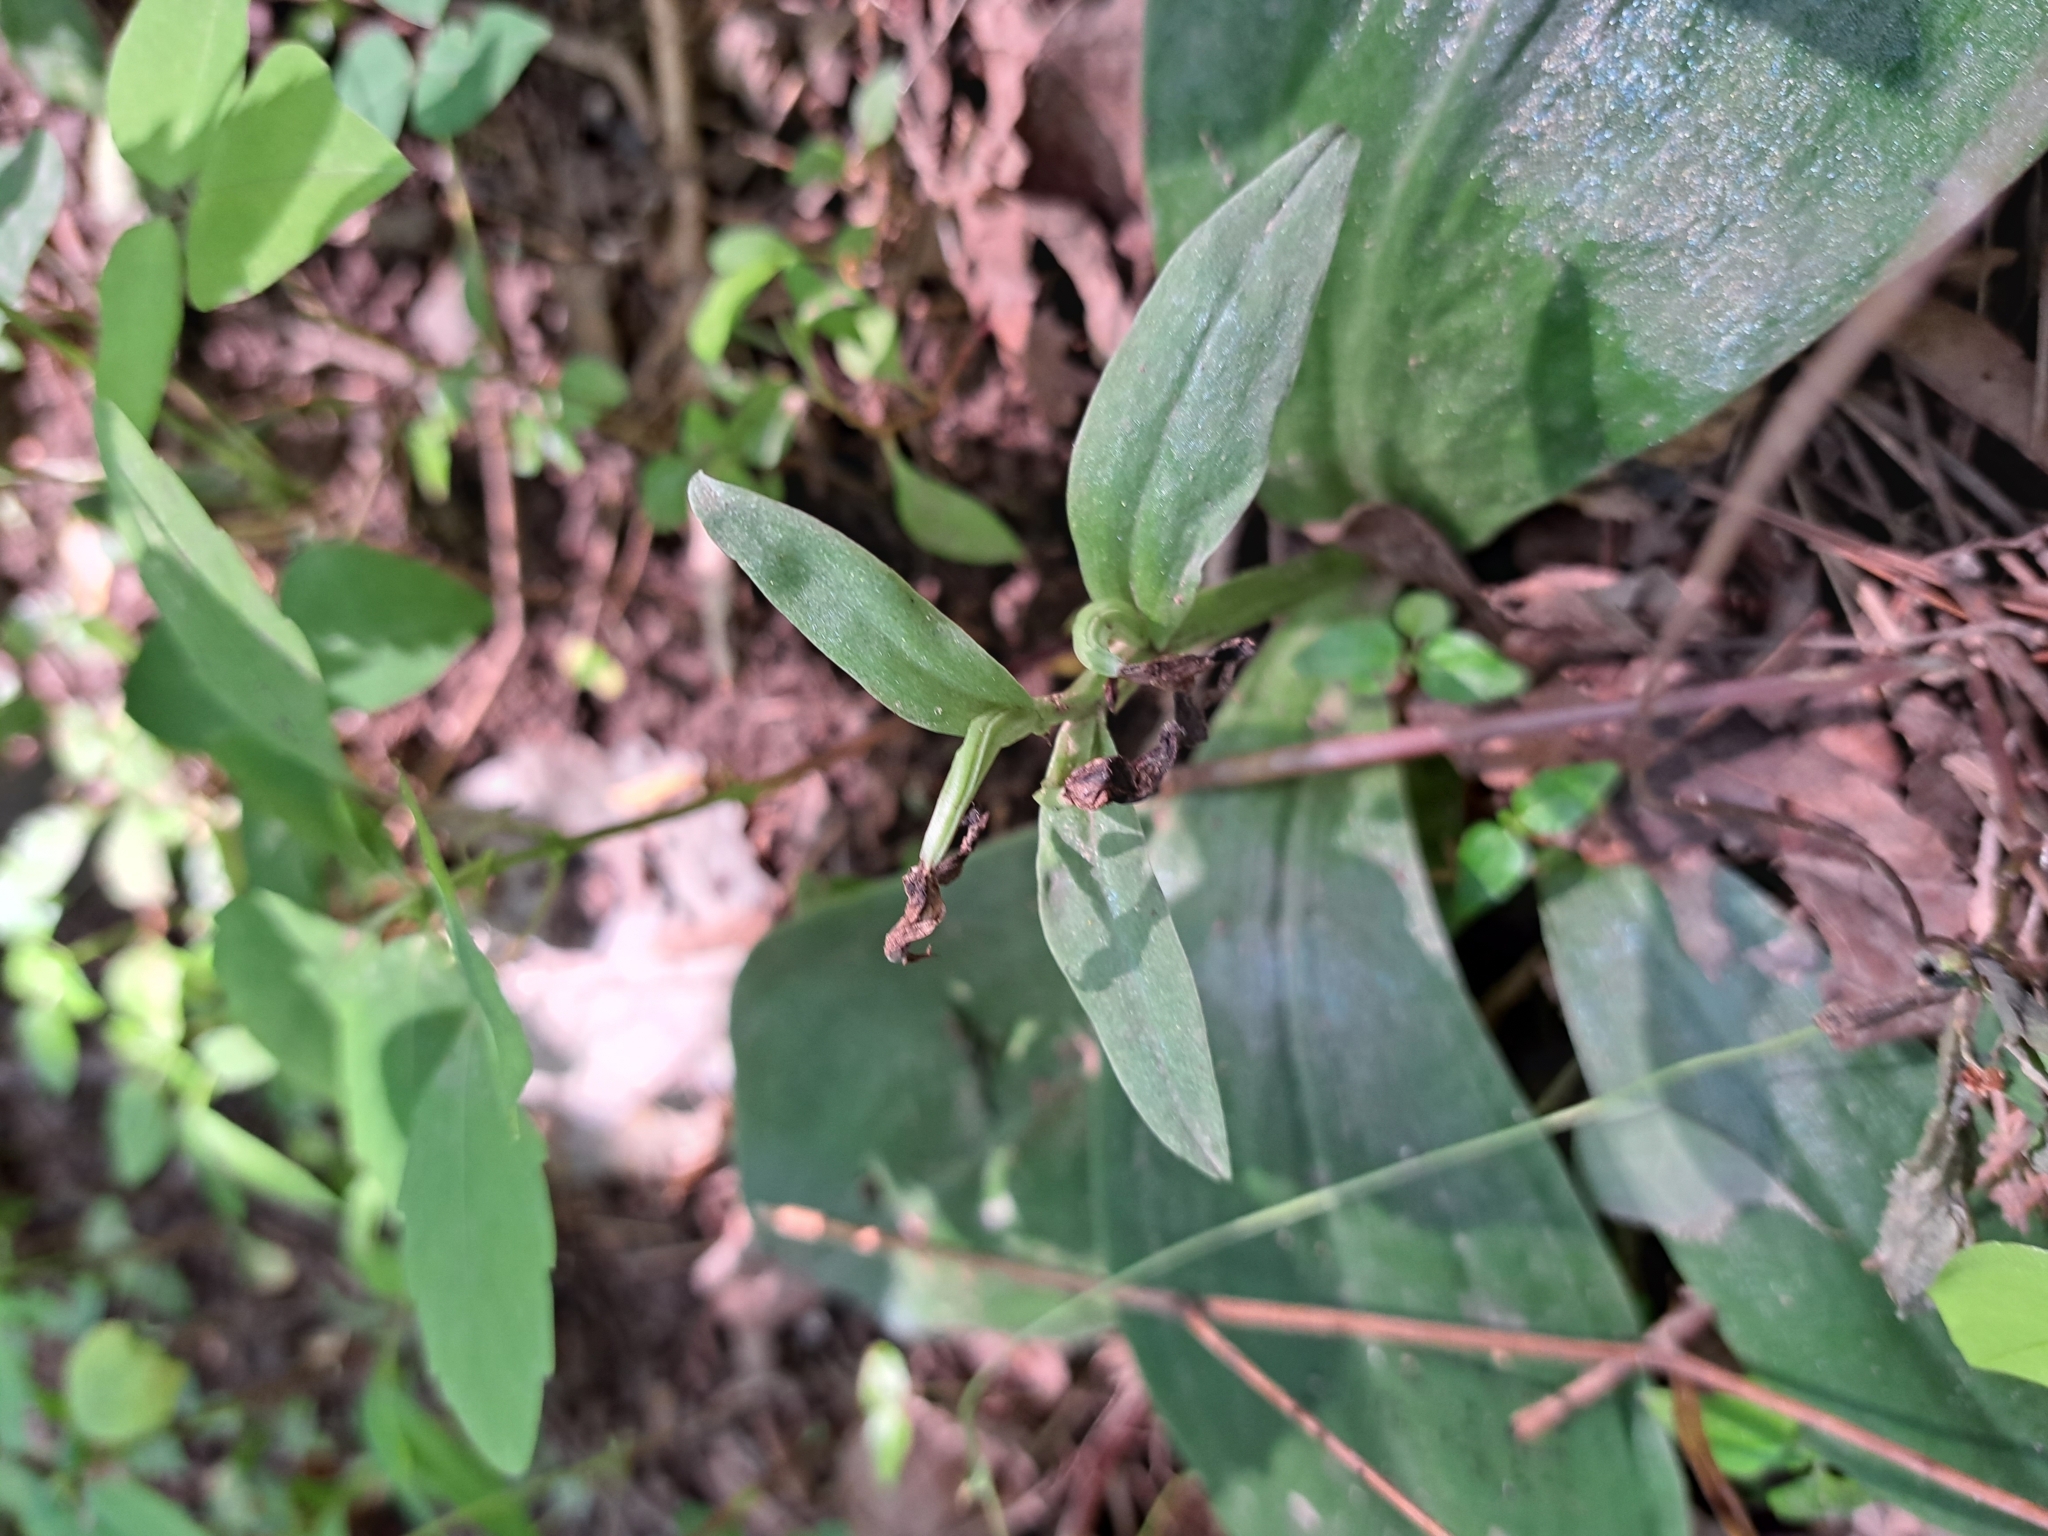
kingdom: Plantae
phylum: Tracheophyta
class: Liliopsida
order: Asparagales
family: Orchidaceae
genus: Galearis
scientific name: Galearis spectabilis
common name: Purple-hooded orchis
